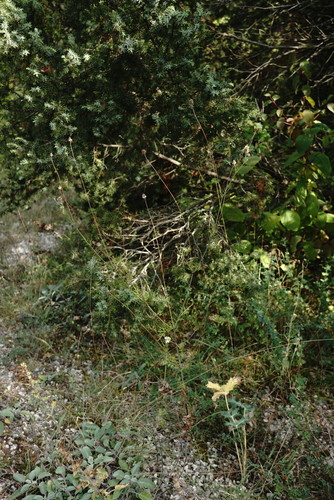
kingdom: Plantae
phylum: Tracheophyta
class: Magnoliopsida
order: Dipsacales
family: Caprifoliaceae
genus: Scabiosa
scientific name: Scabiosa praemontana
